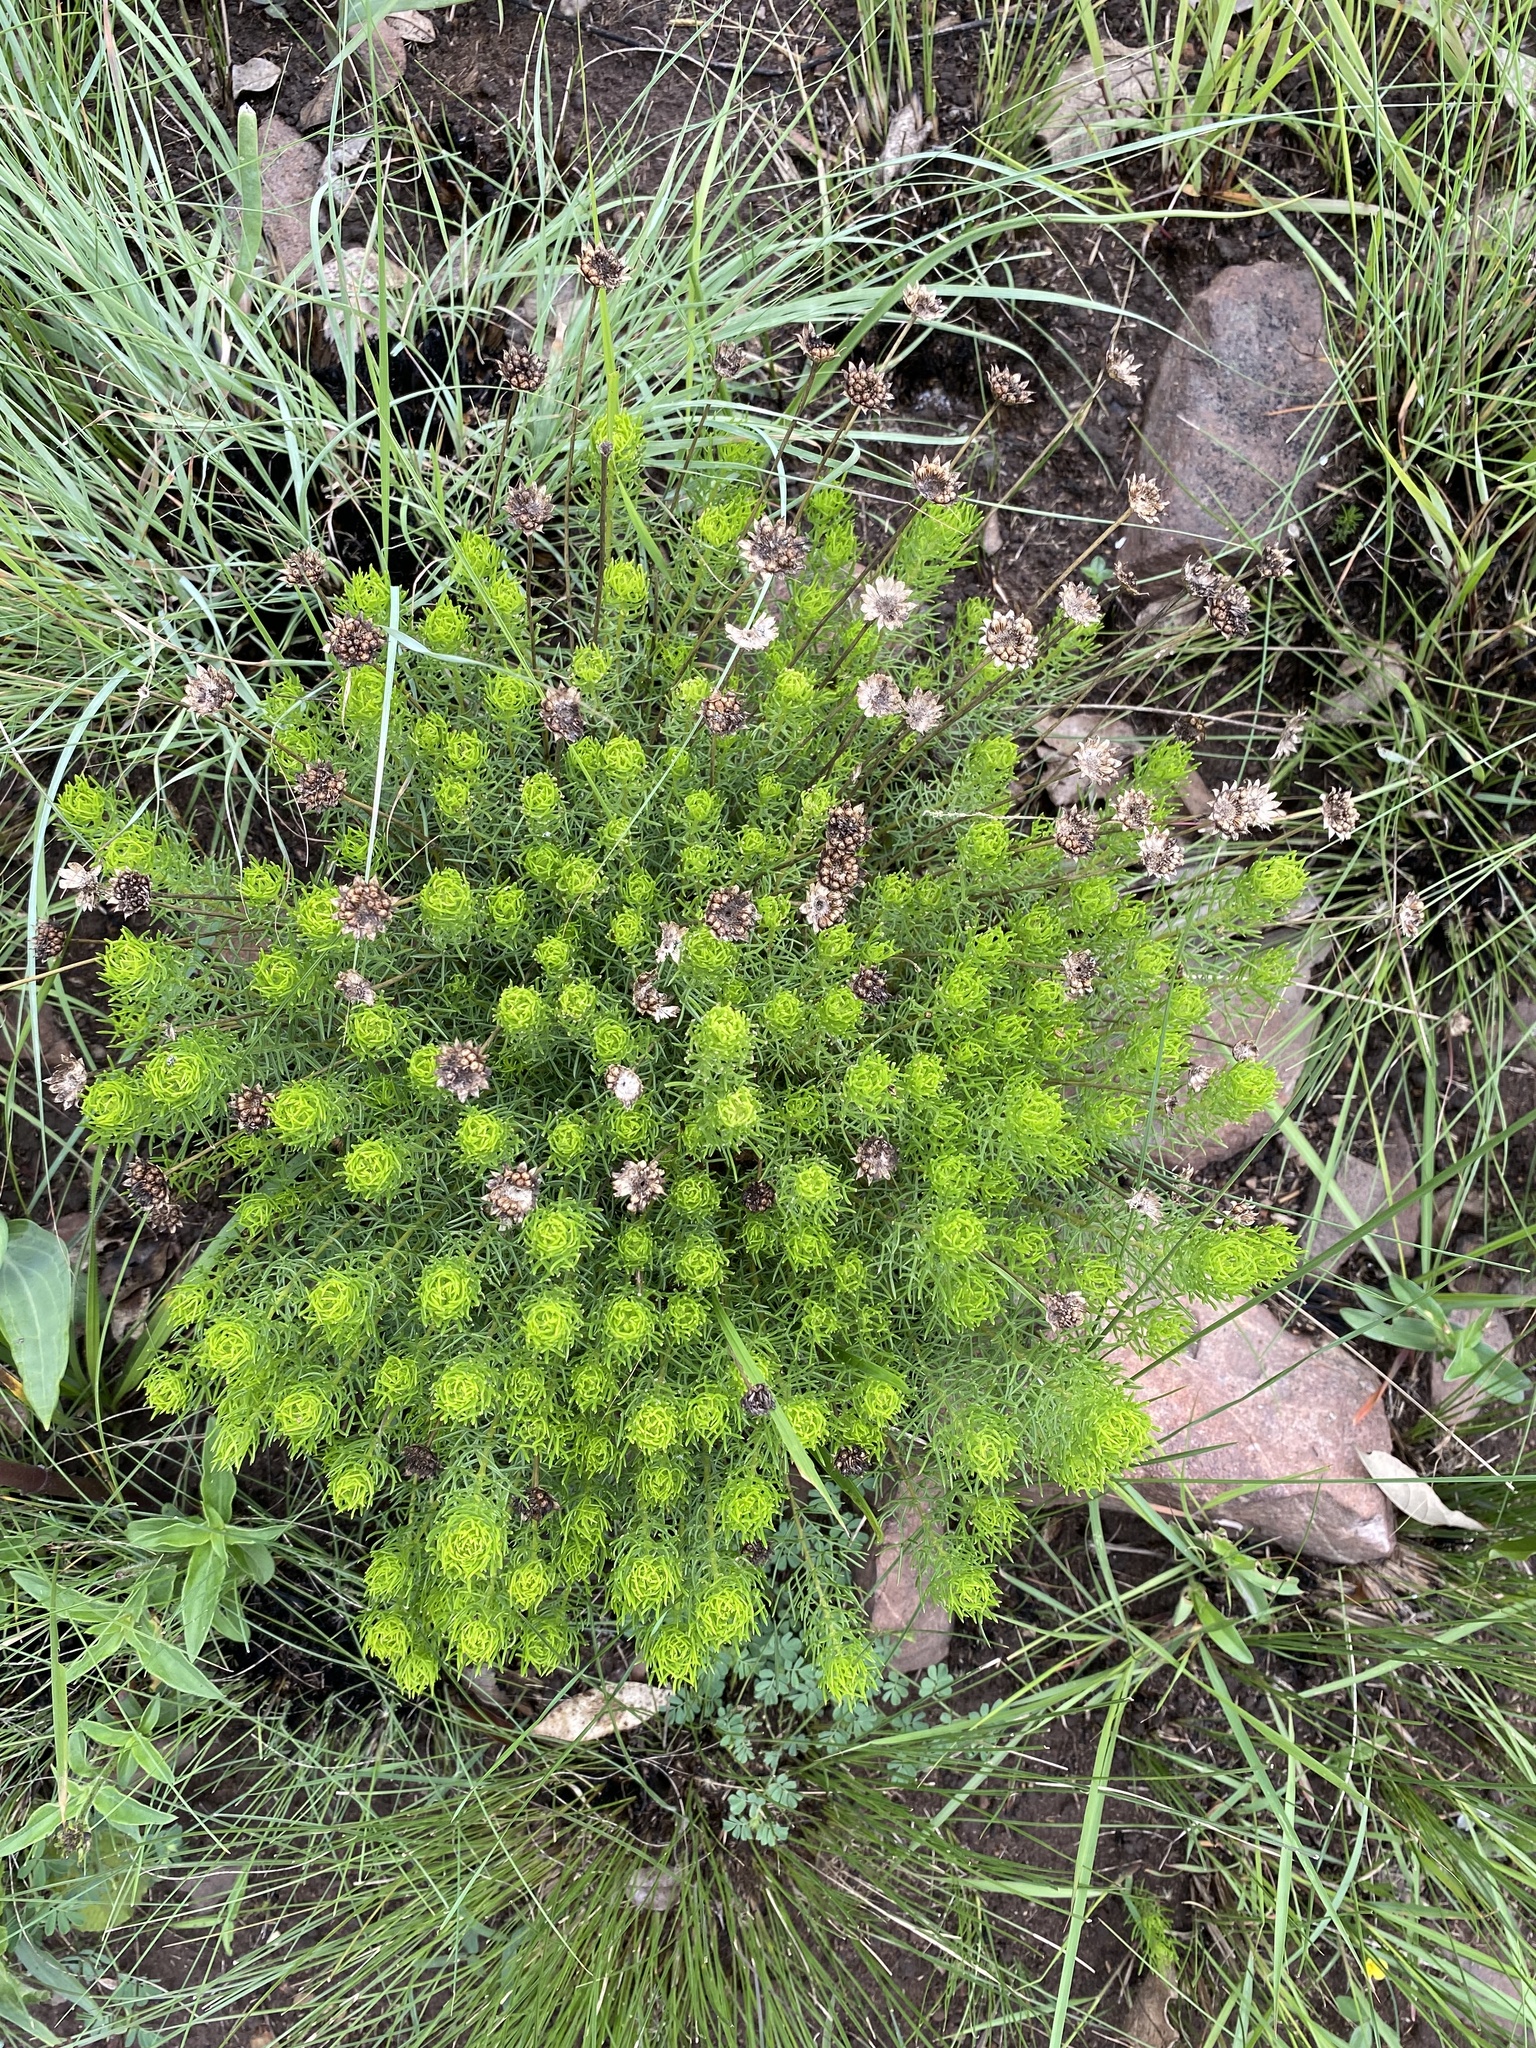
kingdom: Plantae
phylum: Tracheophyta
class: Magnoliopsida
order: Asterales
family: Asteraceae
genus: Ursinia
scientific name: Ursinia saxatilis
